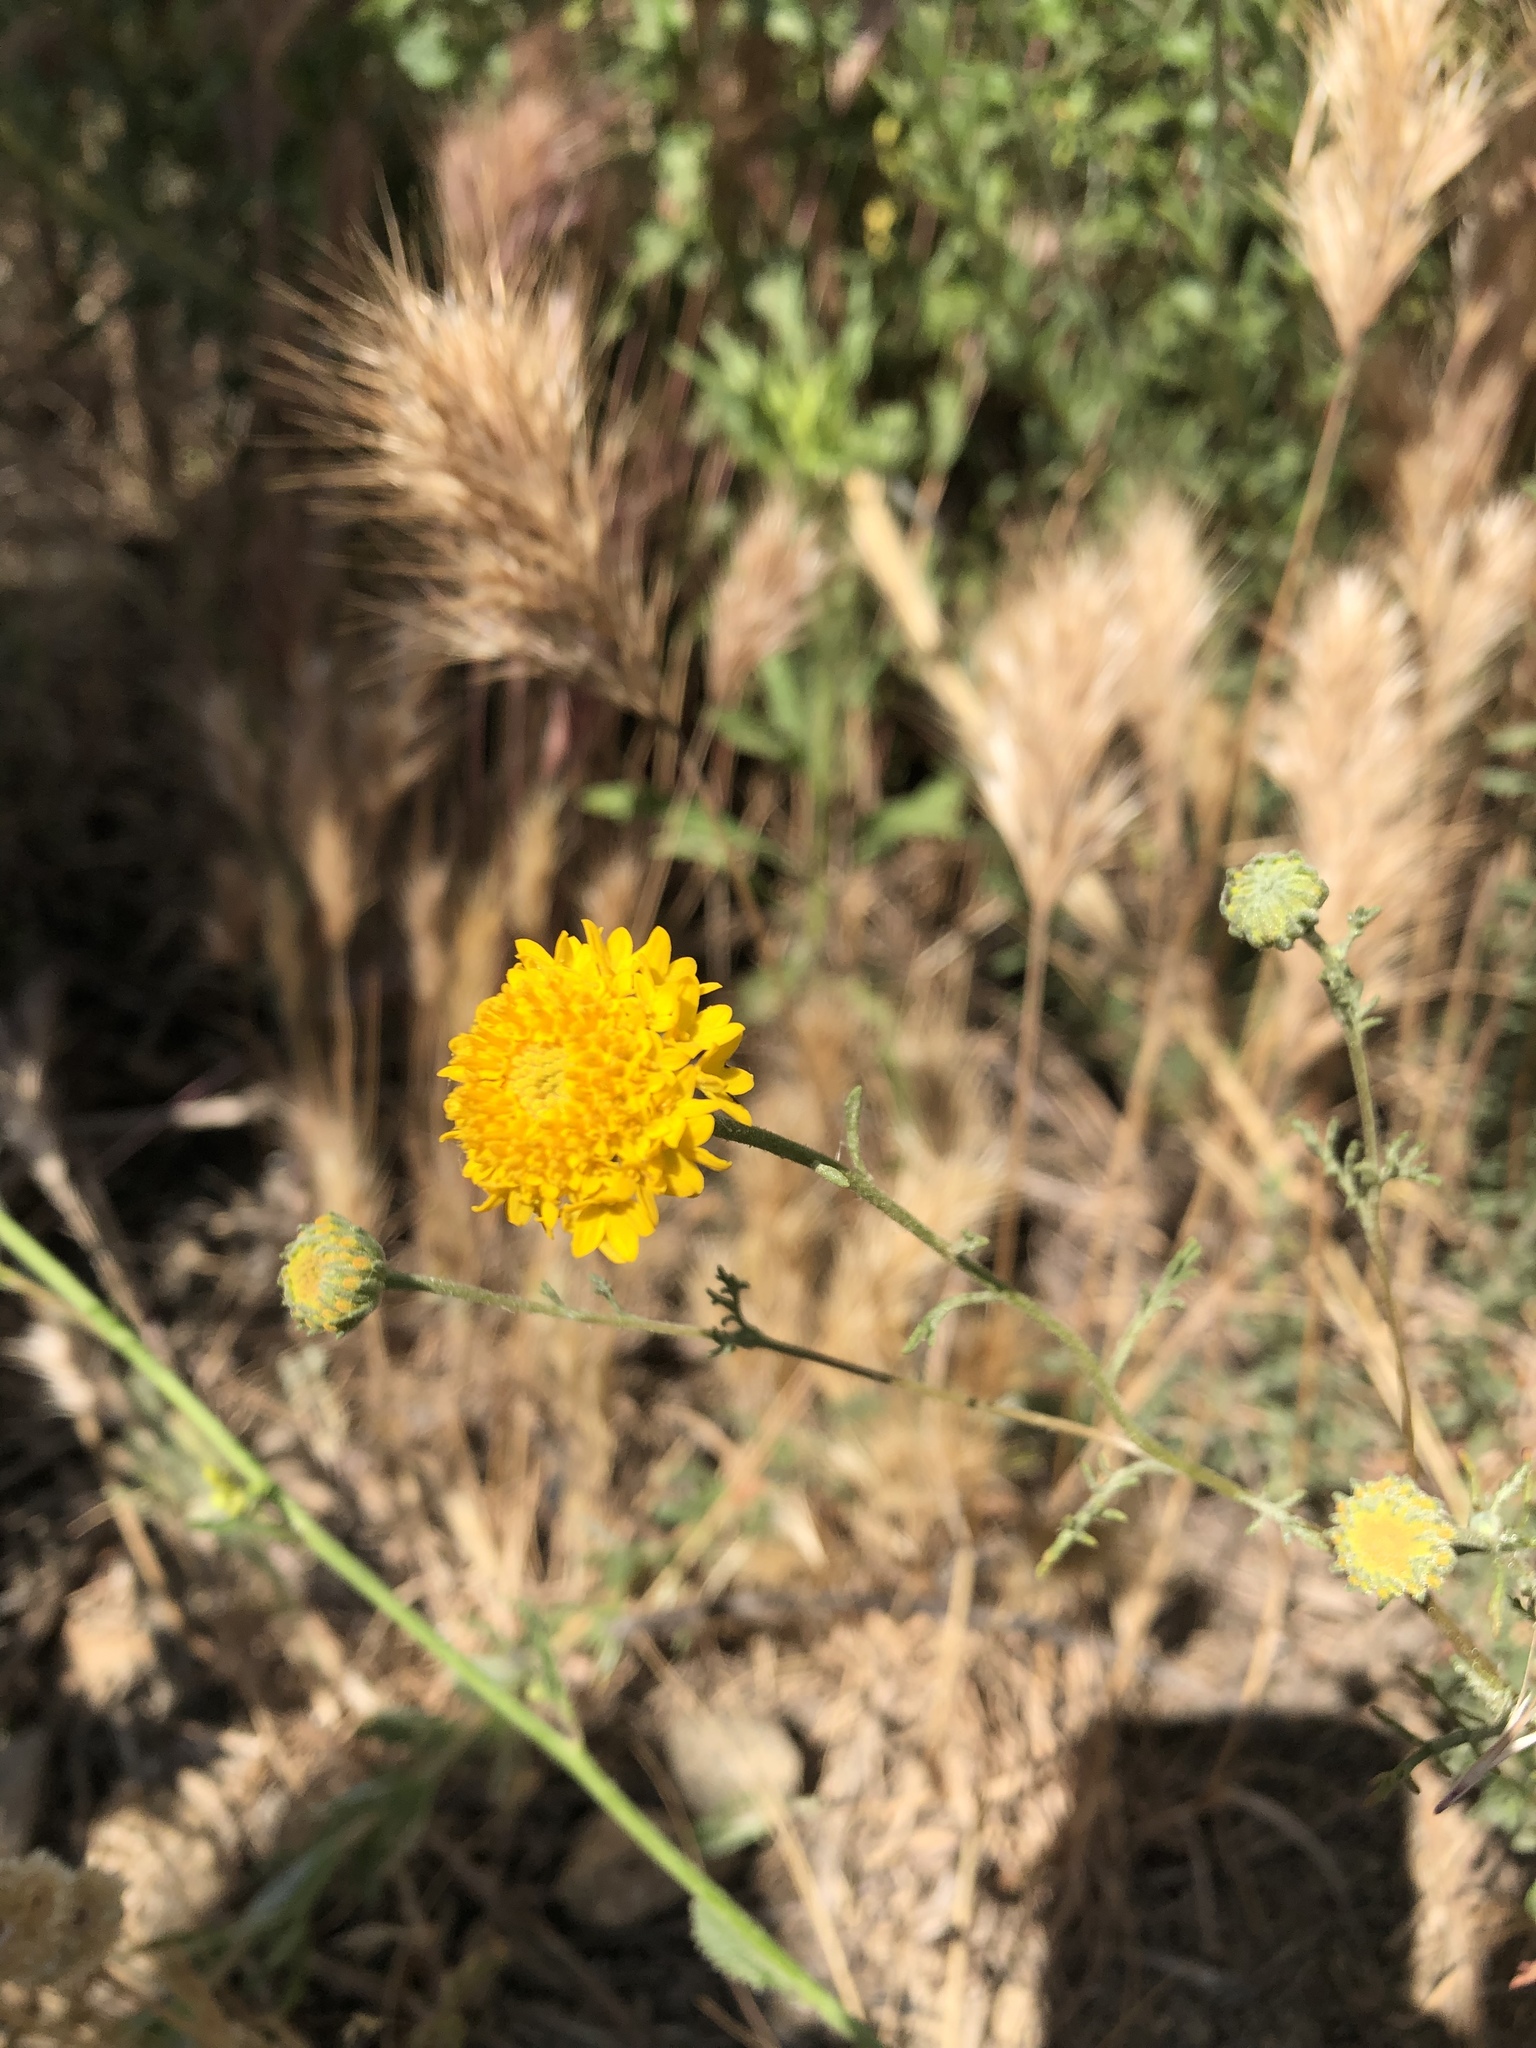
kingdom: Plantae
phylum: Tracheophyta
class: Magnoliopsida
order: Asterales
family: Asteraceae
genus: Chaenactis
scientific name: Chaenactis glabriuscula
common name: Yellow pincushion
